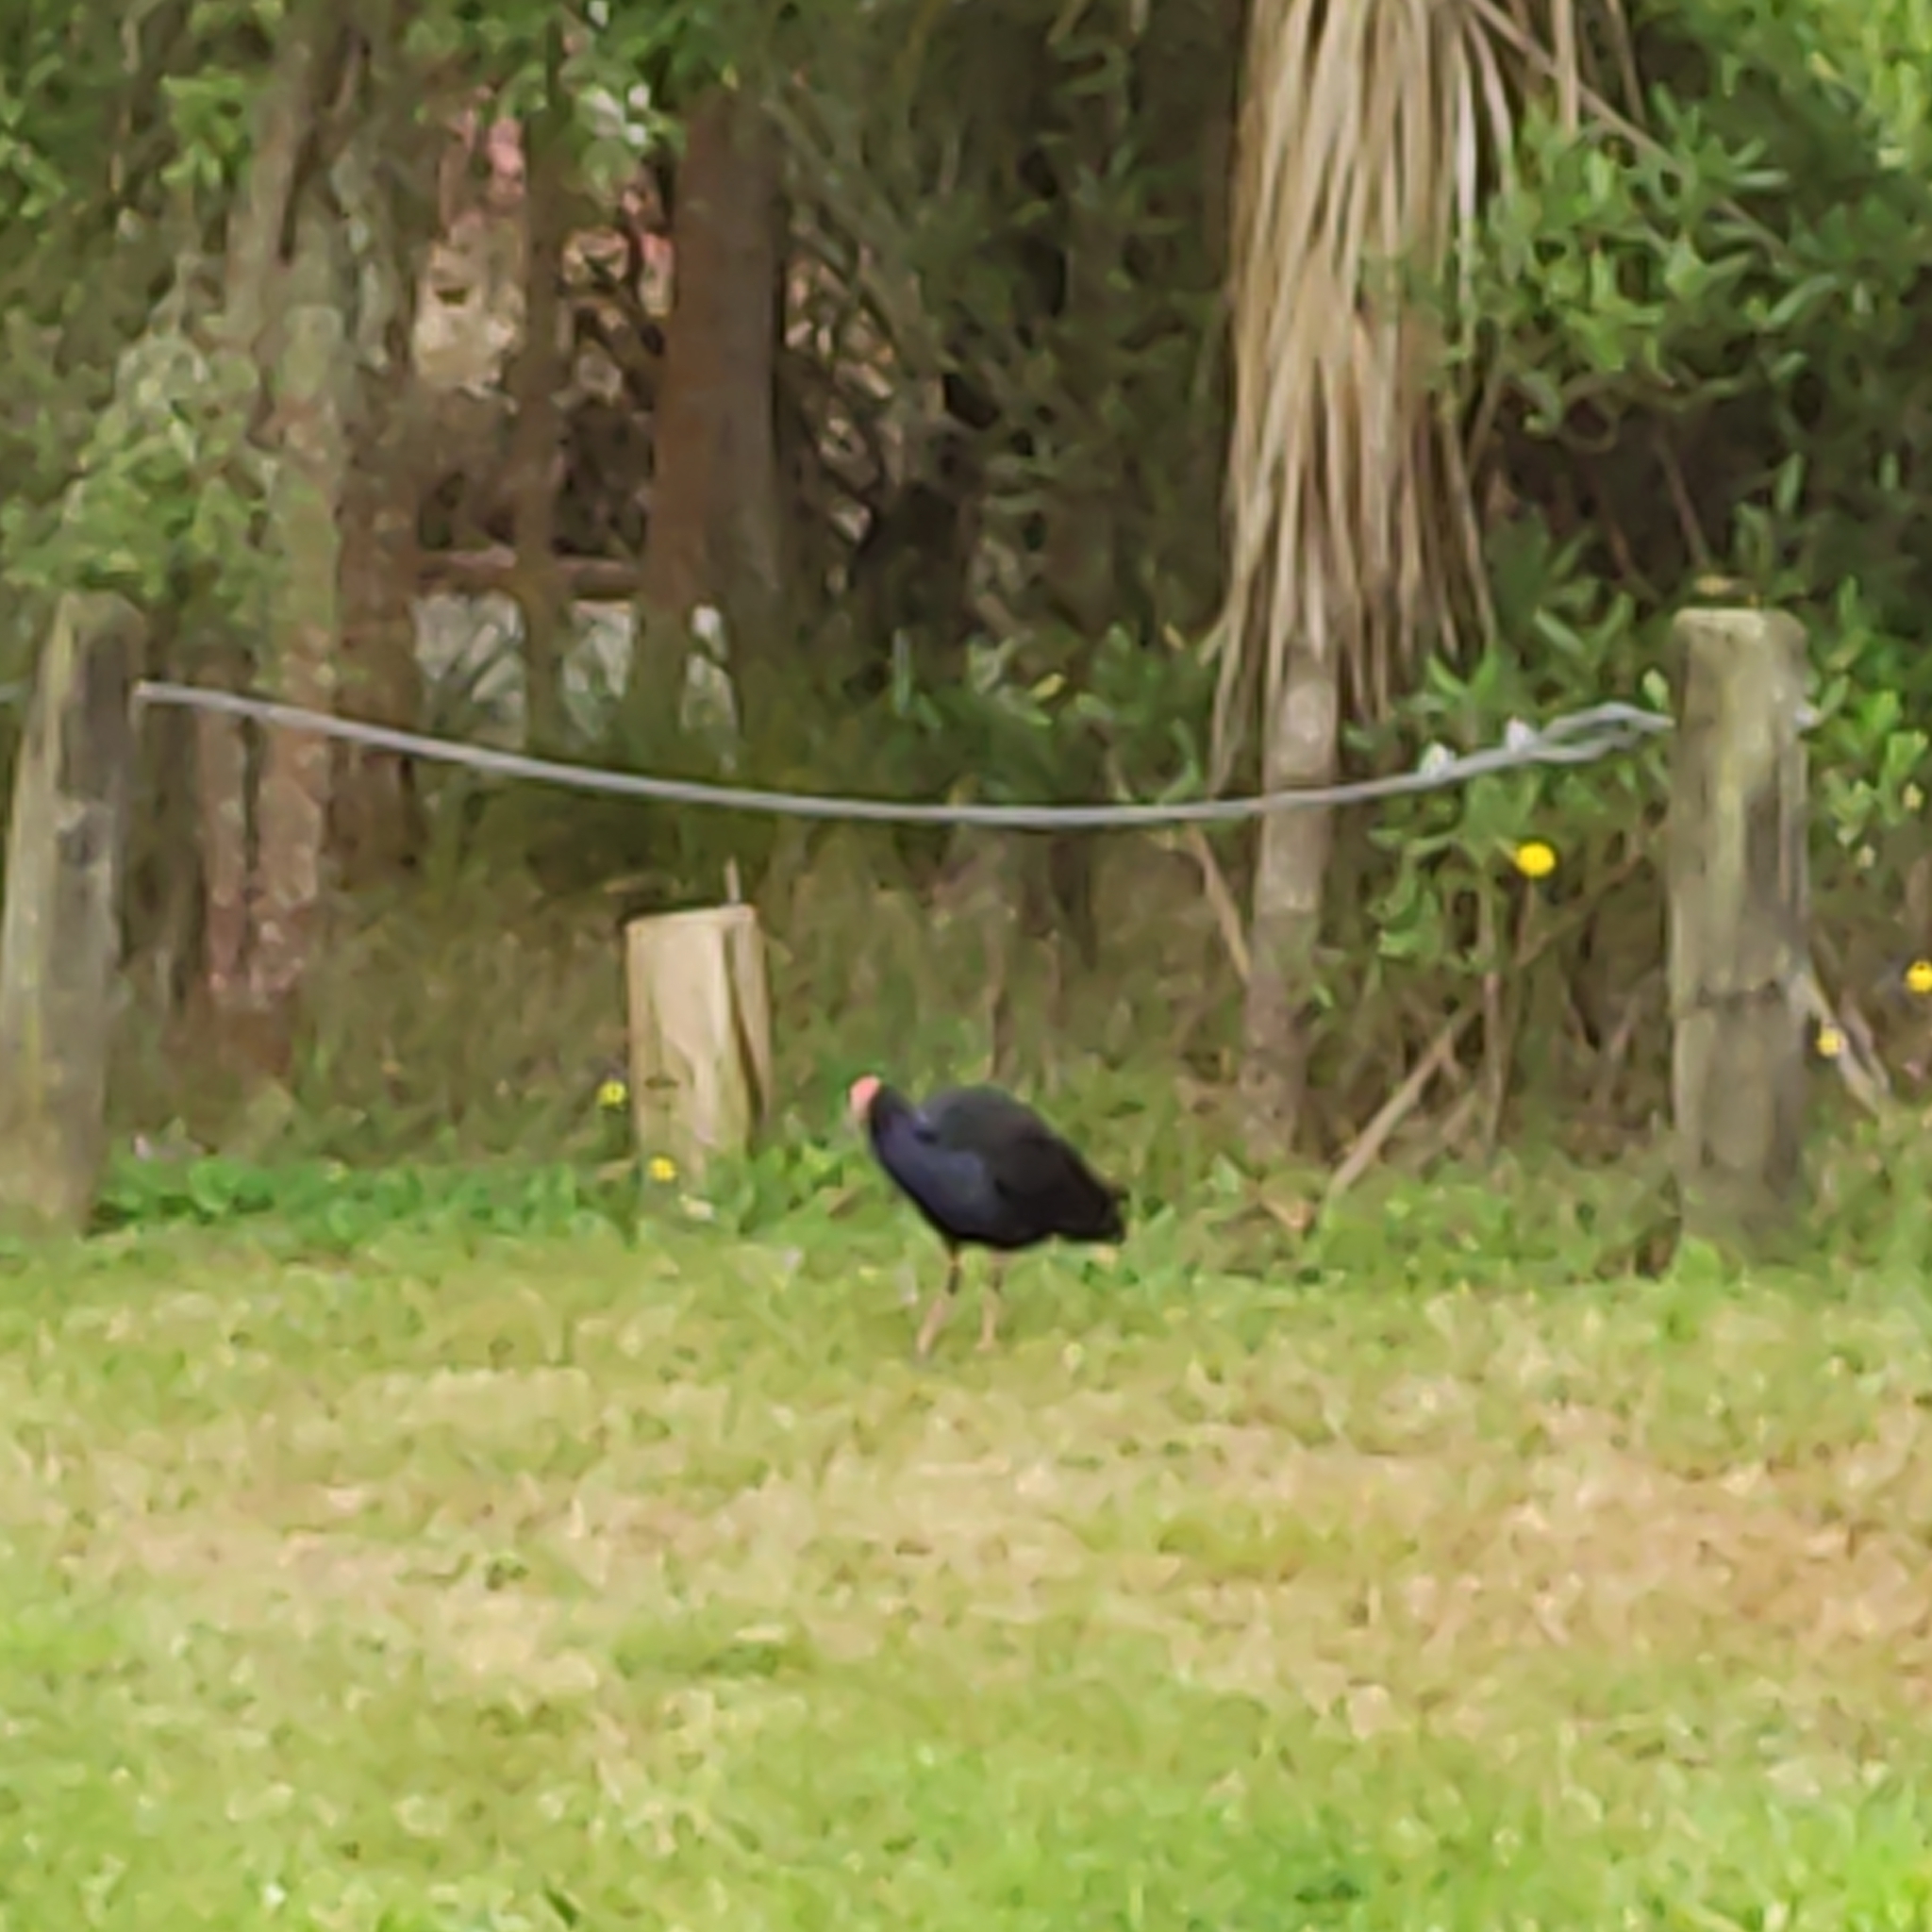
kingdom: Animalia
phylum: Chordata
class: Aves
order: Gruiformes
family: Rallidae
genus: Porphyrio
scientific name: Porphyrio melanotus
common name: Australasian swamphen
